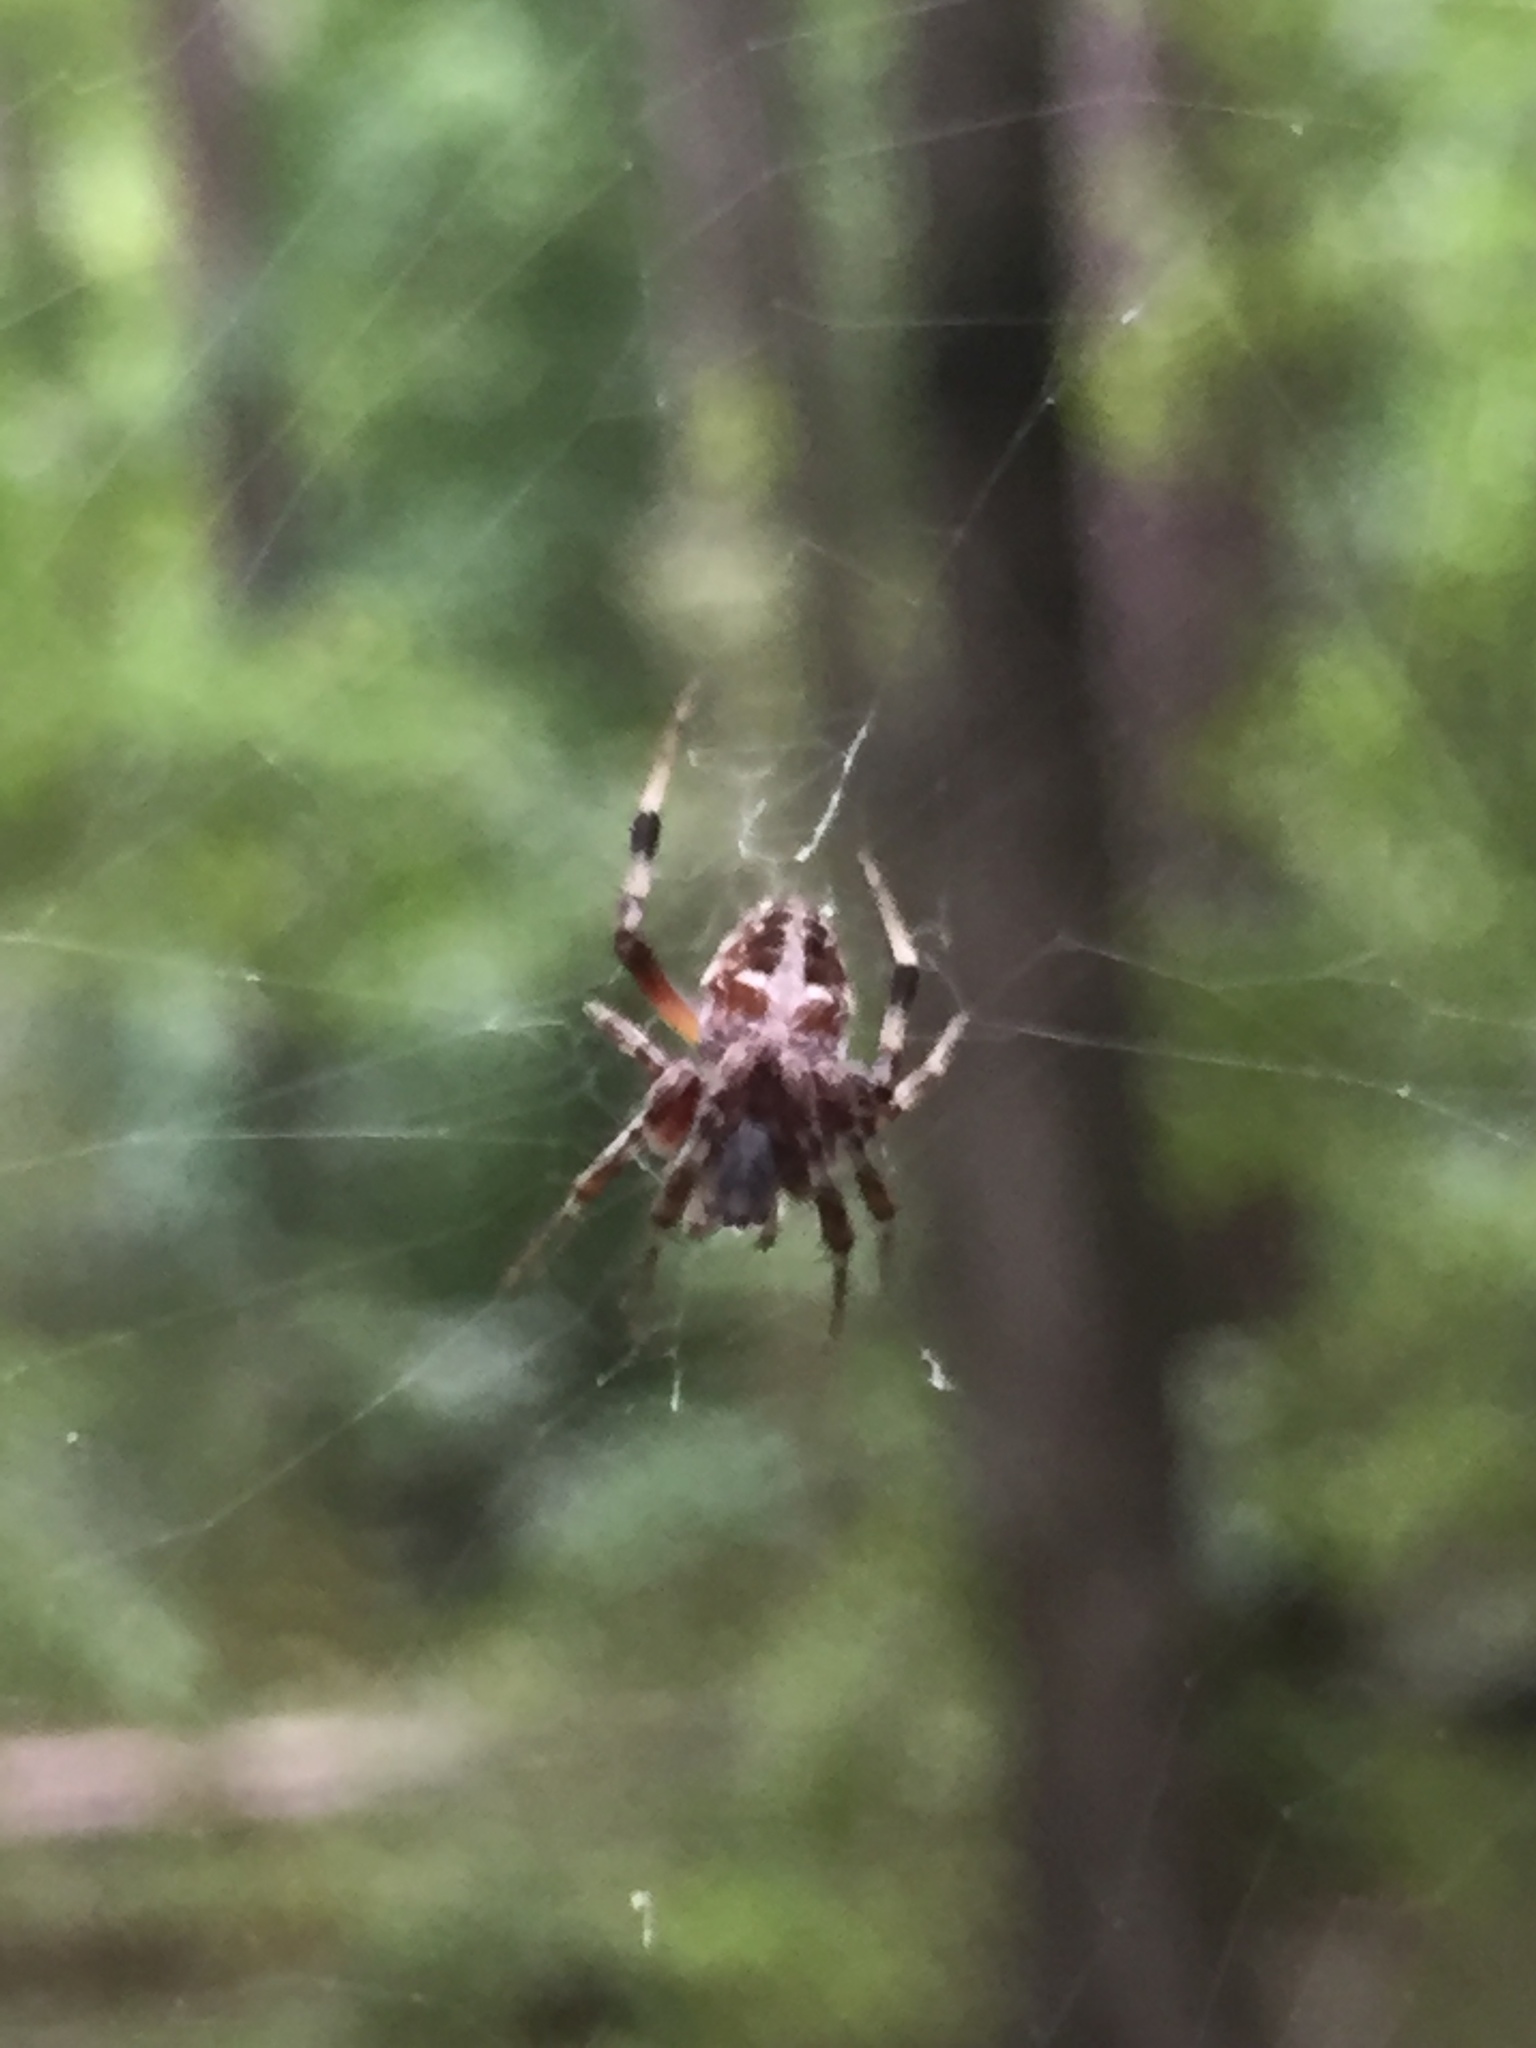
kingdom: Animalia
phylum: Arthropoda
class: Arachnida
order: Araneae
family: Araneidae
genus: Neoscona
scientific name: Neoscona domiciliorum
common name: Red-femured spotted orbweaver
